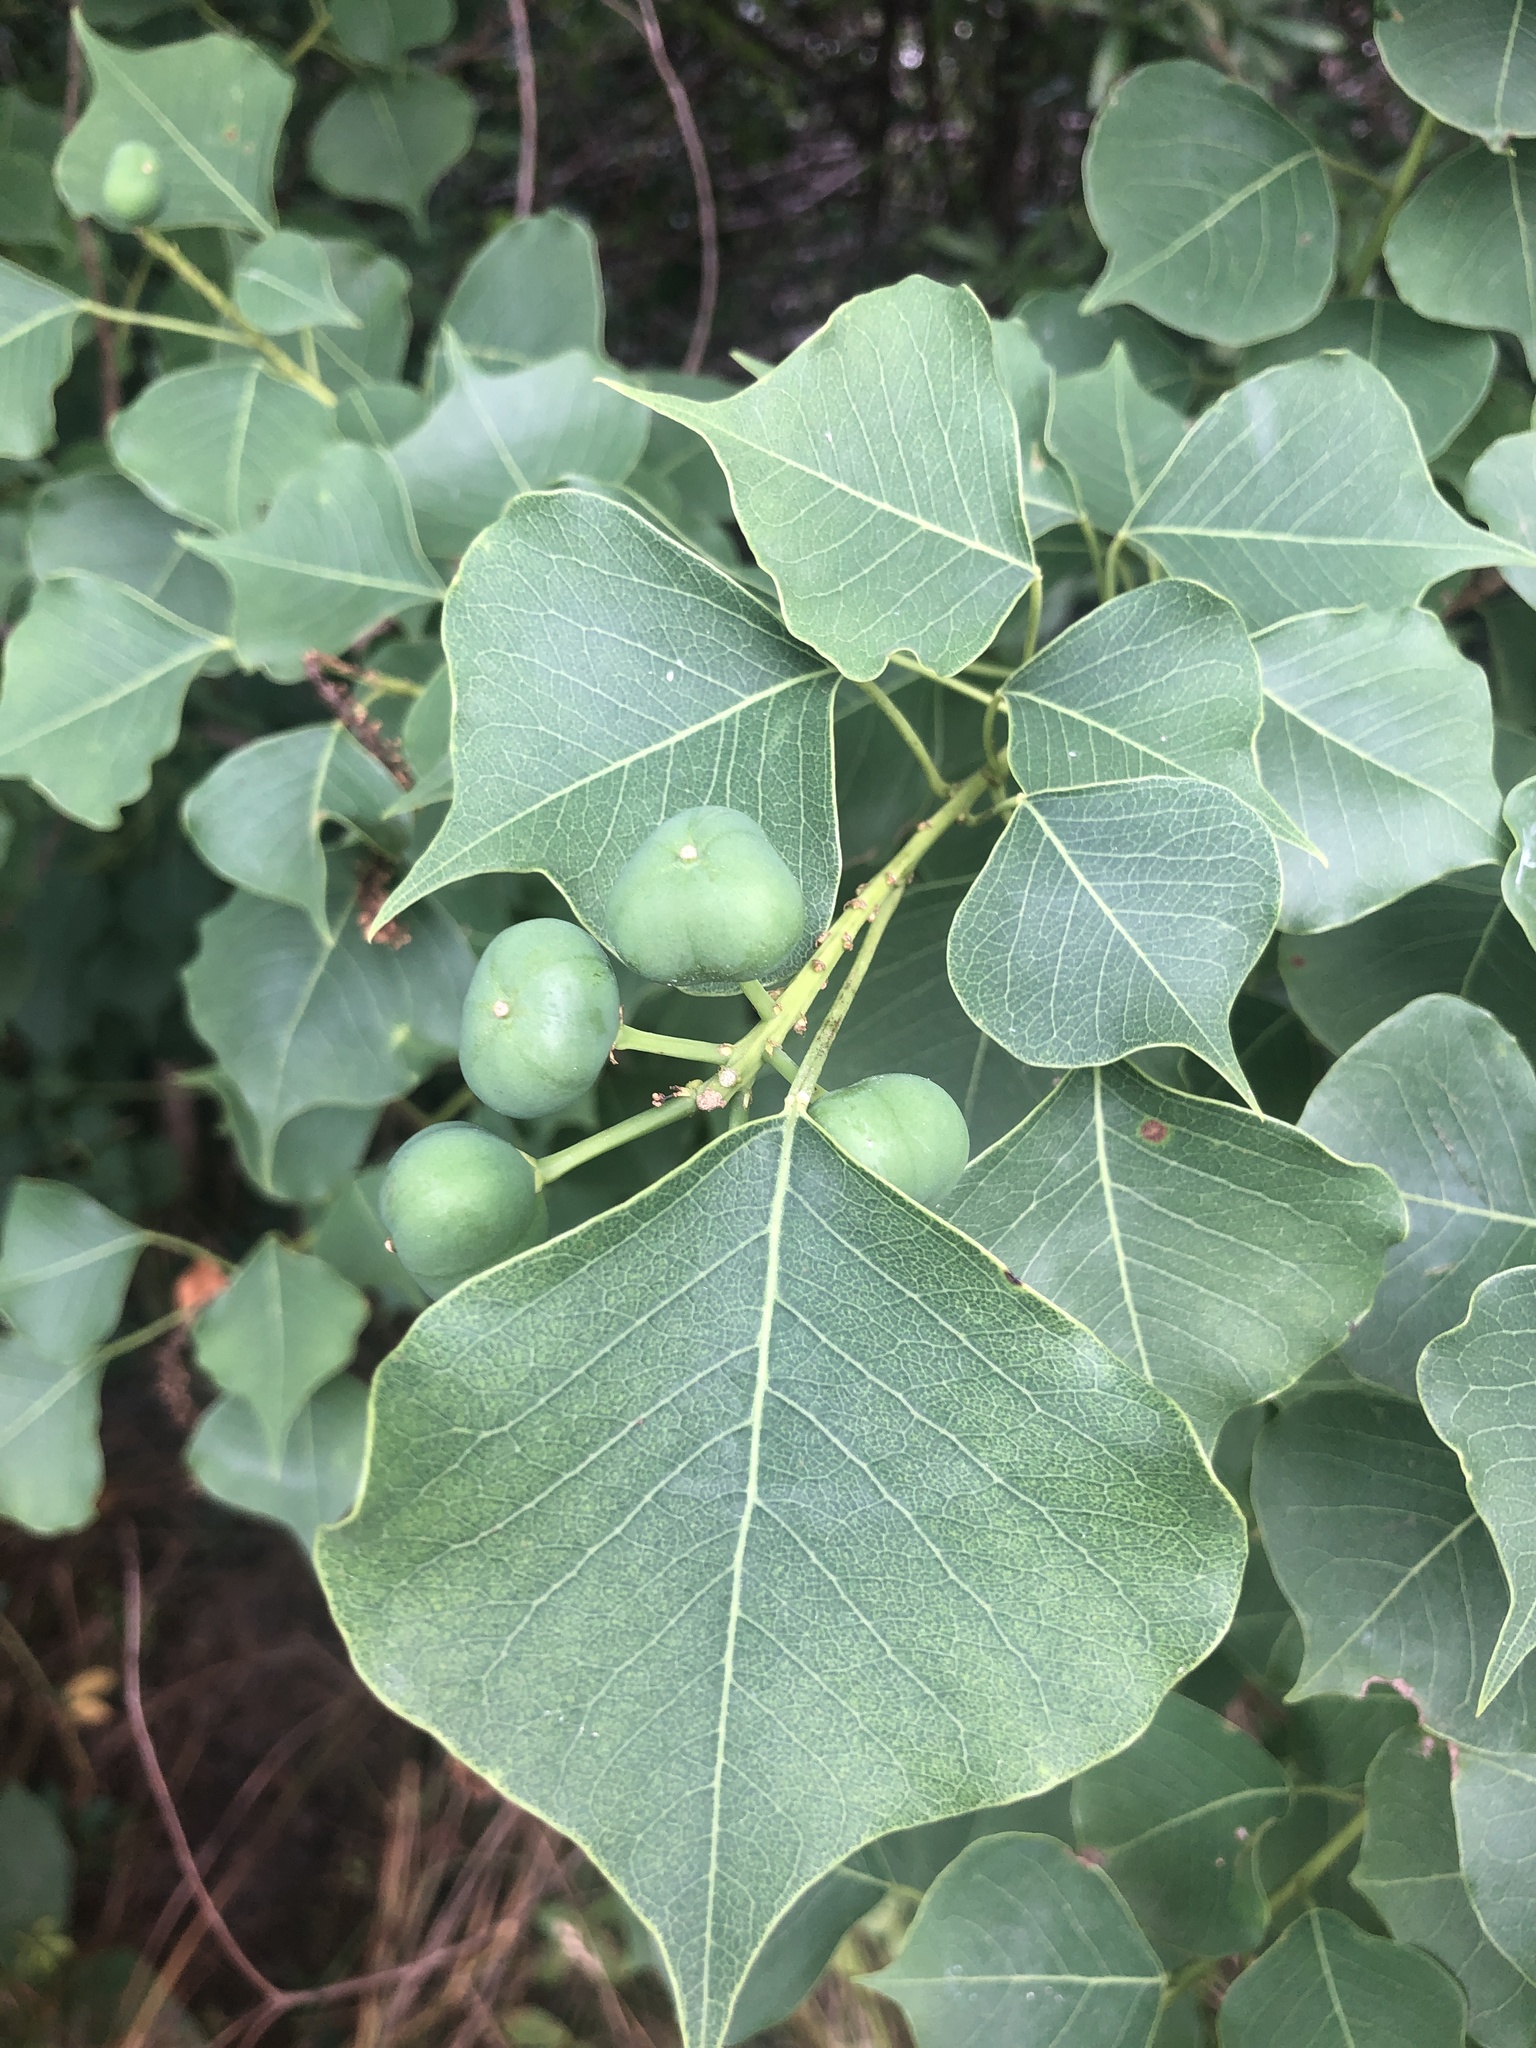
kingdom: Plantae
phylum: Tracheophyta
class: Magnoliopsida
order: Malpighiales
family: Euphorbiaceae
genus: Triadica
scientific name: Triadica sebifera
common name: Chinese tallow
